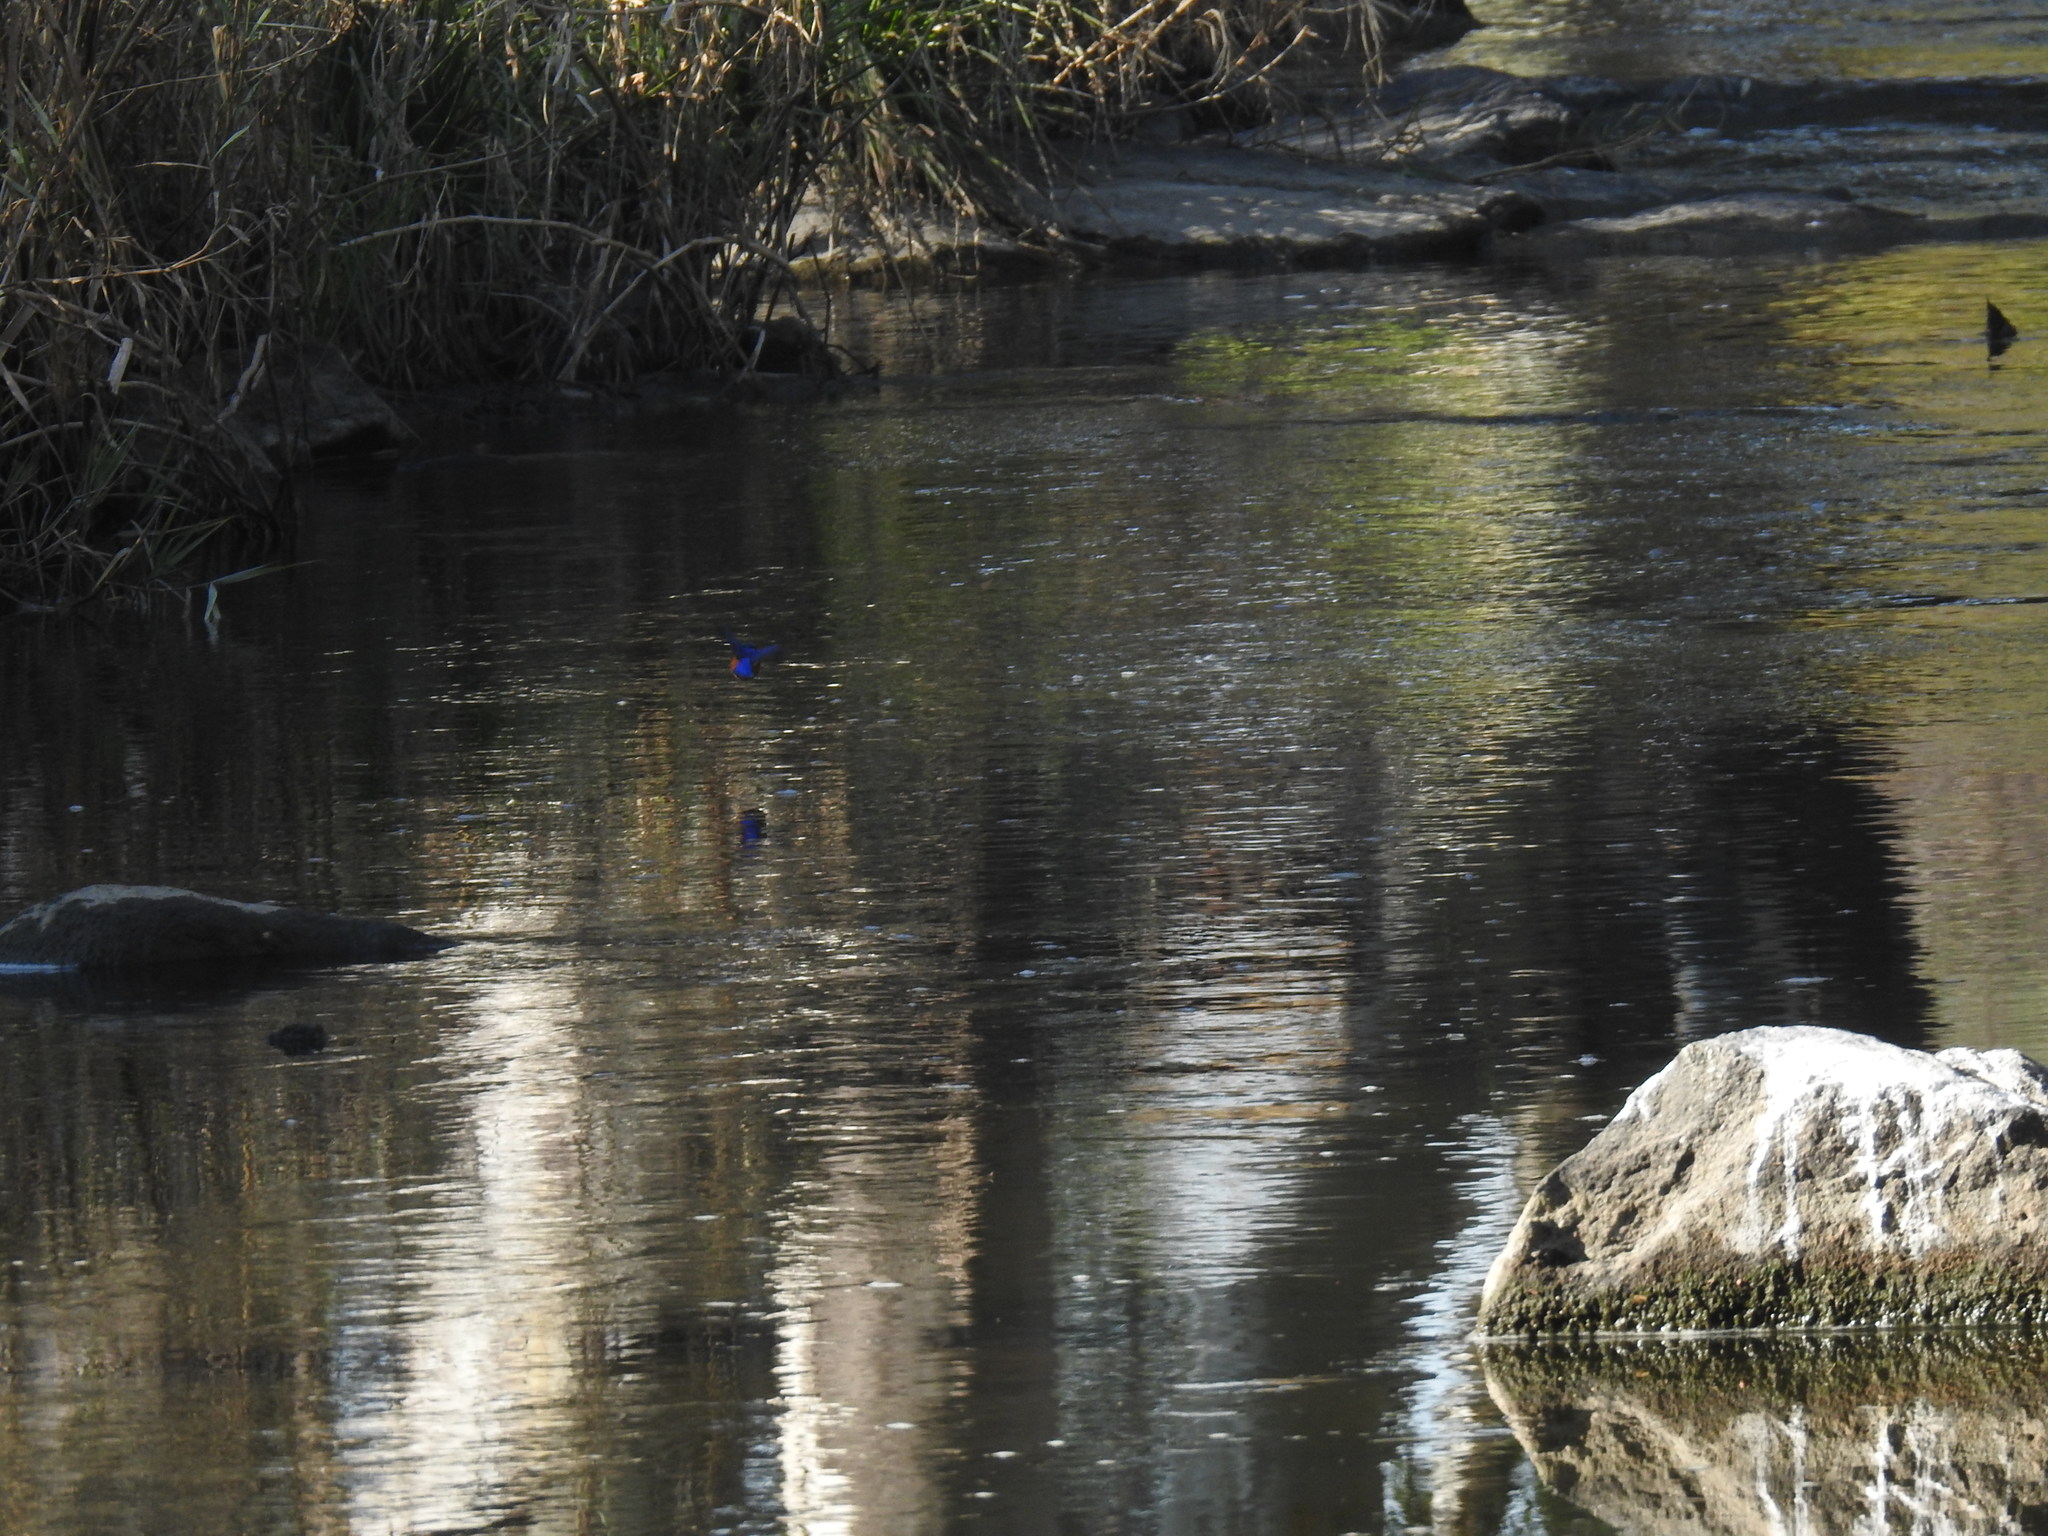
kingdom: Animalia
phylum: Chordata
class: Aves
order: Coraciiformes
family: Alcedinidae
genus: Corythornis
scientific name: Corythornis cristatus
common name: Malachite kingfisher
